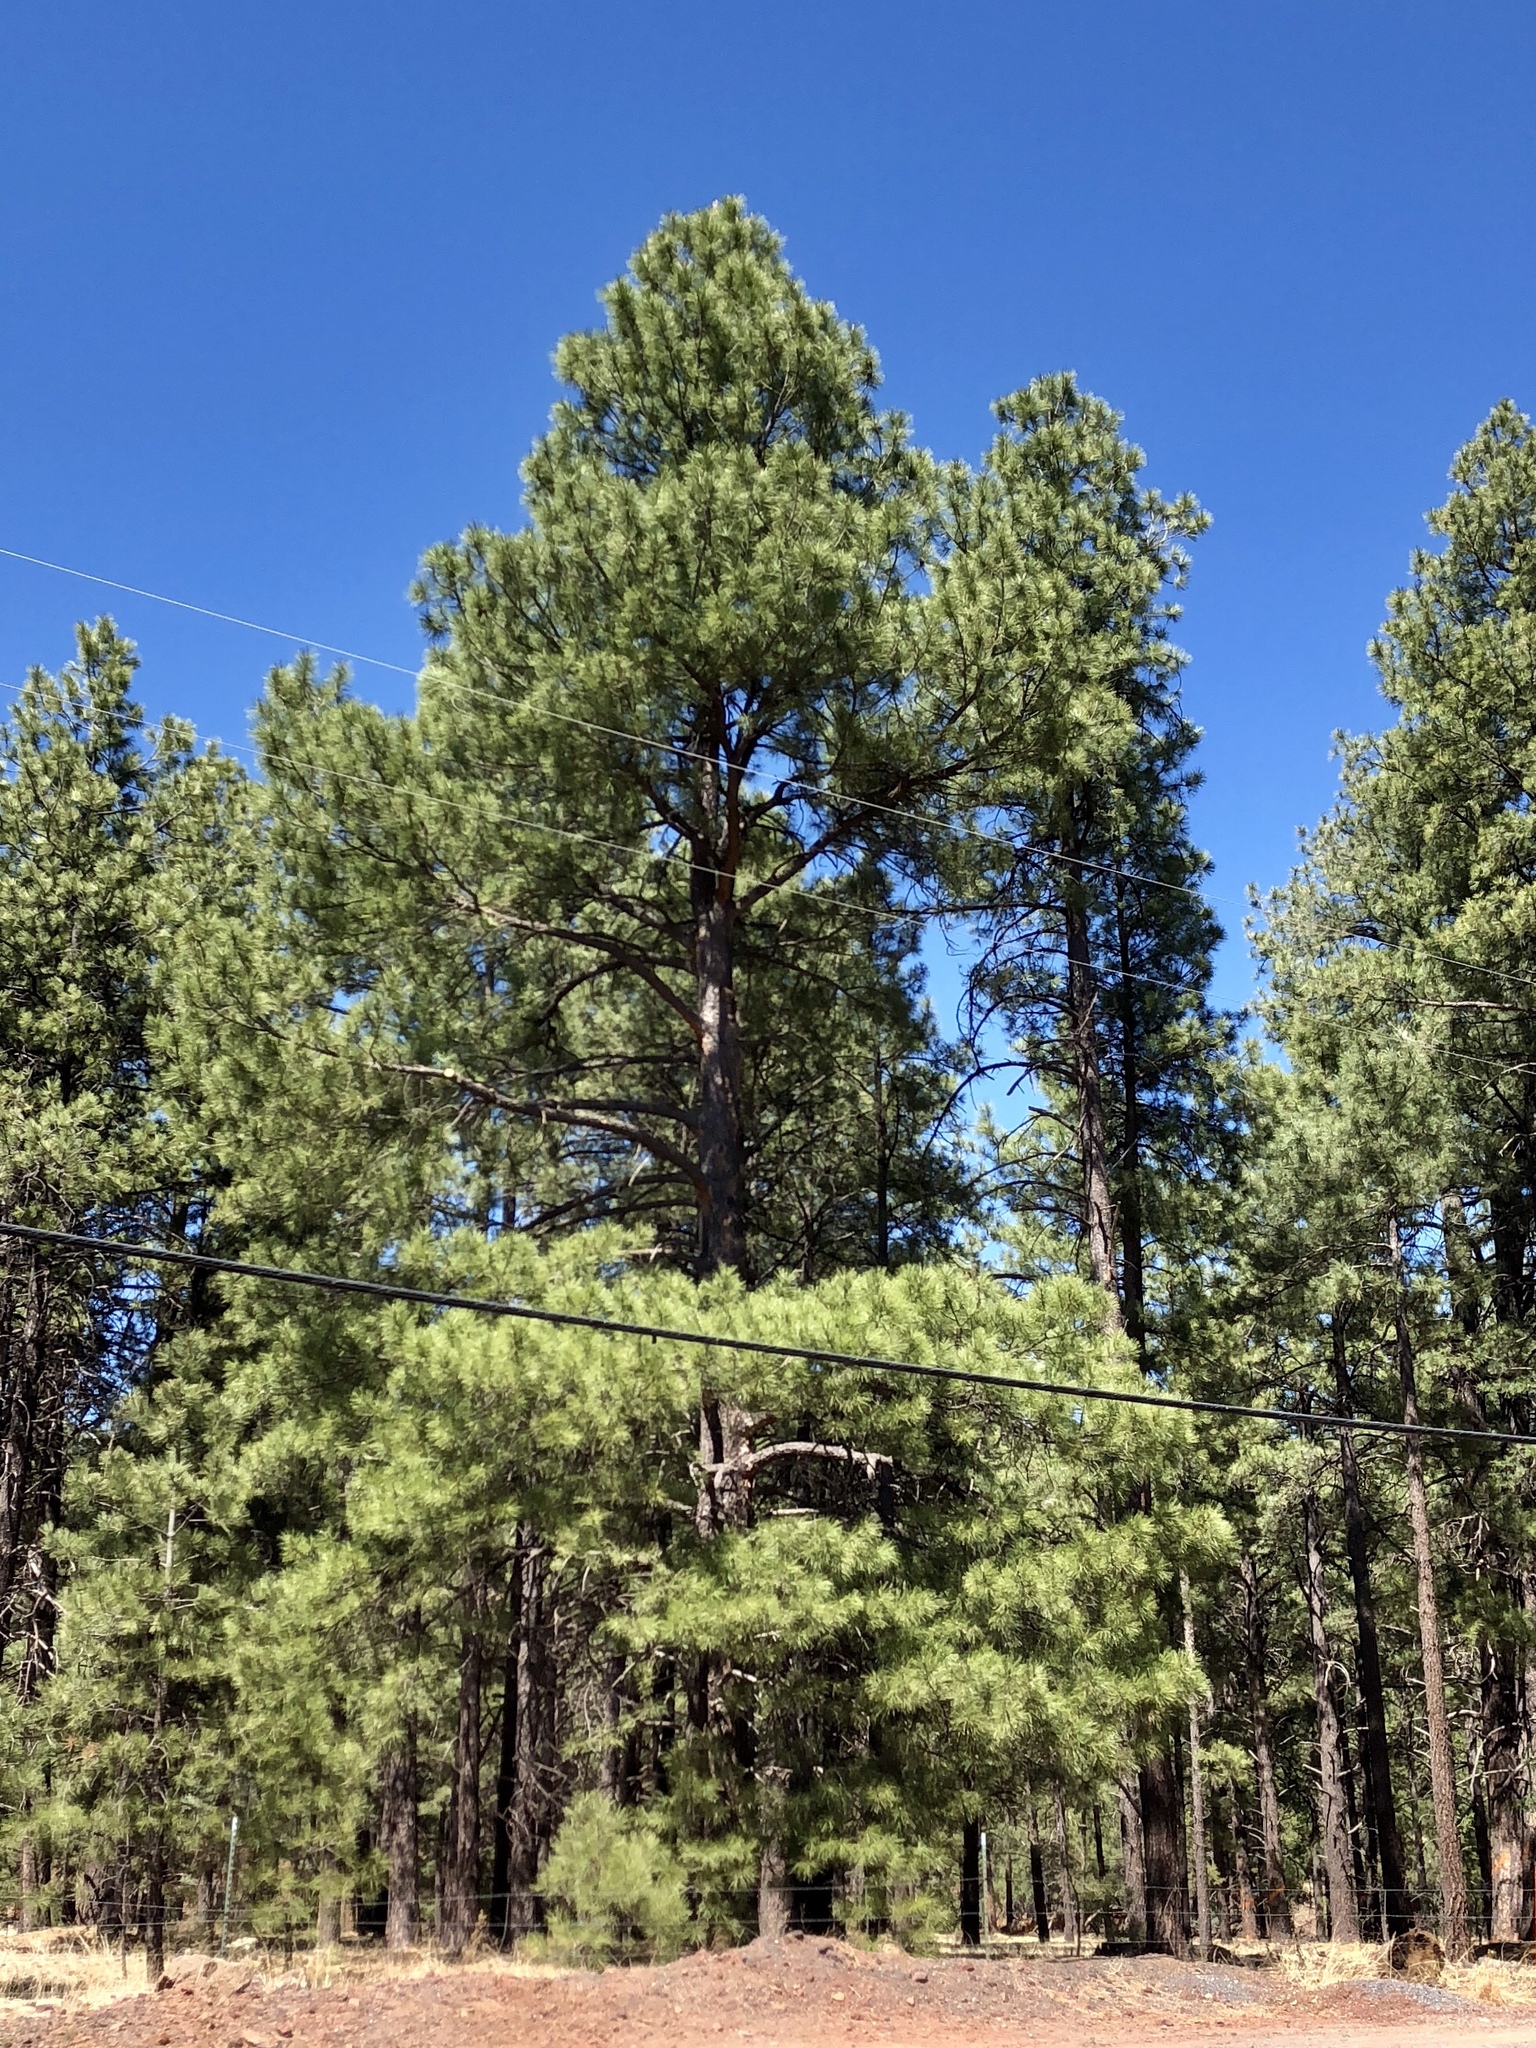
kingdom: Plantae
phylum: Tracheophyta
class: Pinopsida
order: Pinales
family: Pinaceae
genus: Pinus
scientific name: Pinus ponderosa
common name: Western yellow-pine
